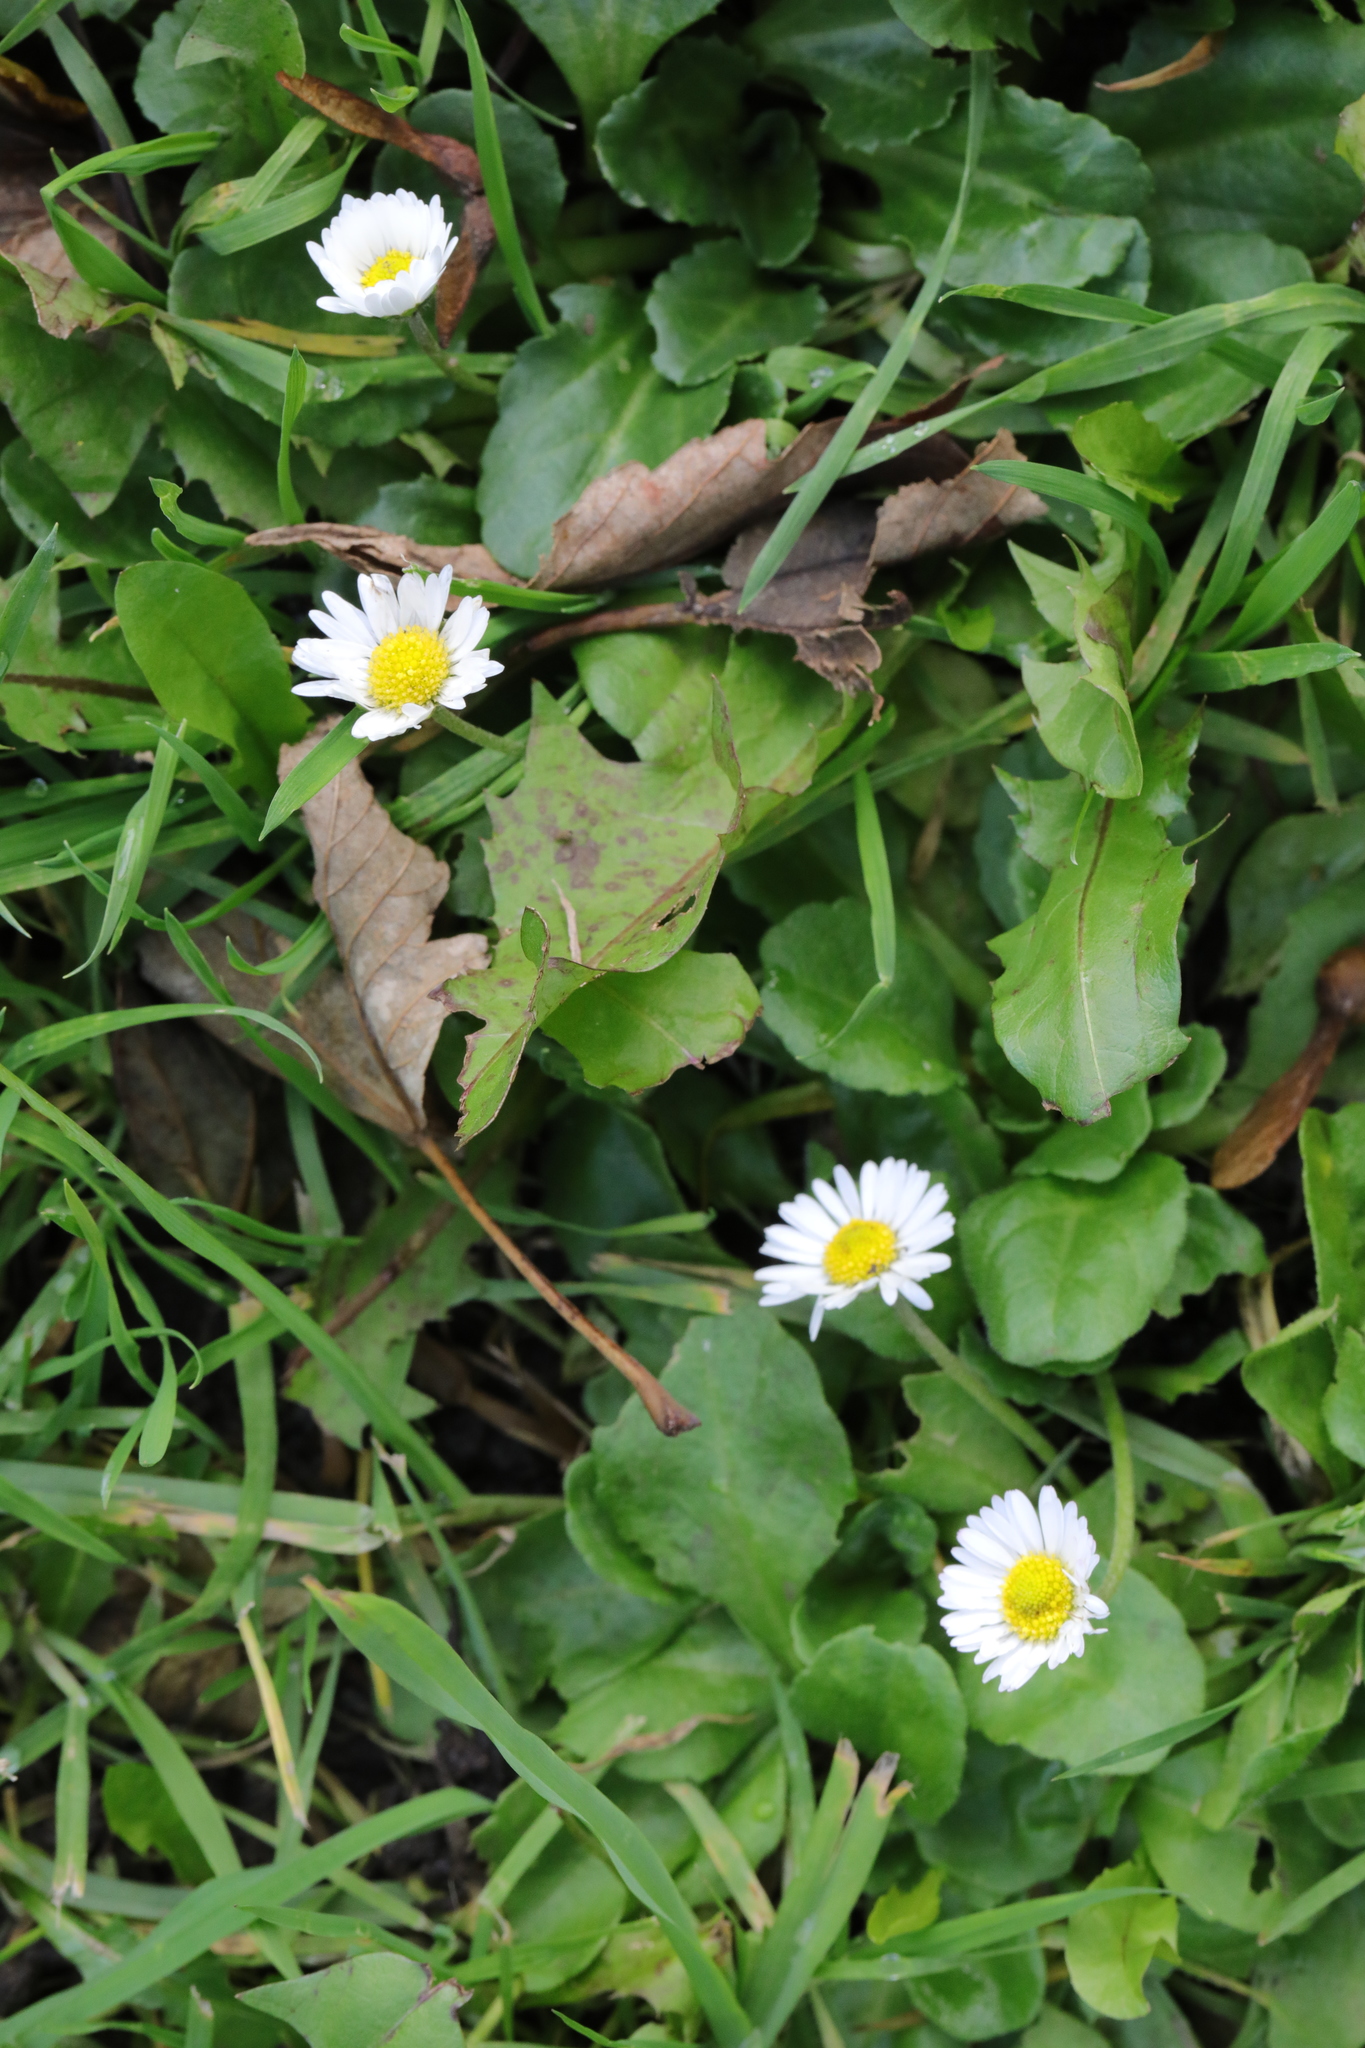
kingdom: Plantae
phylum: Tracheophyta
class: Magnoliopsida
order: Asterales
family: Asteraceae
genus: Bellis
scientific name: Bellis perennis
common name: Lawndaisy
